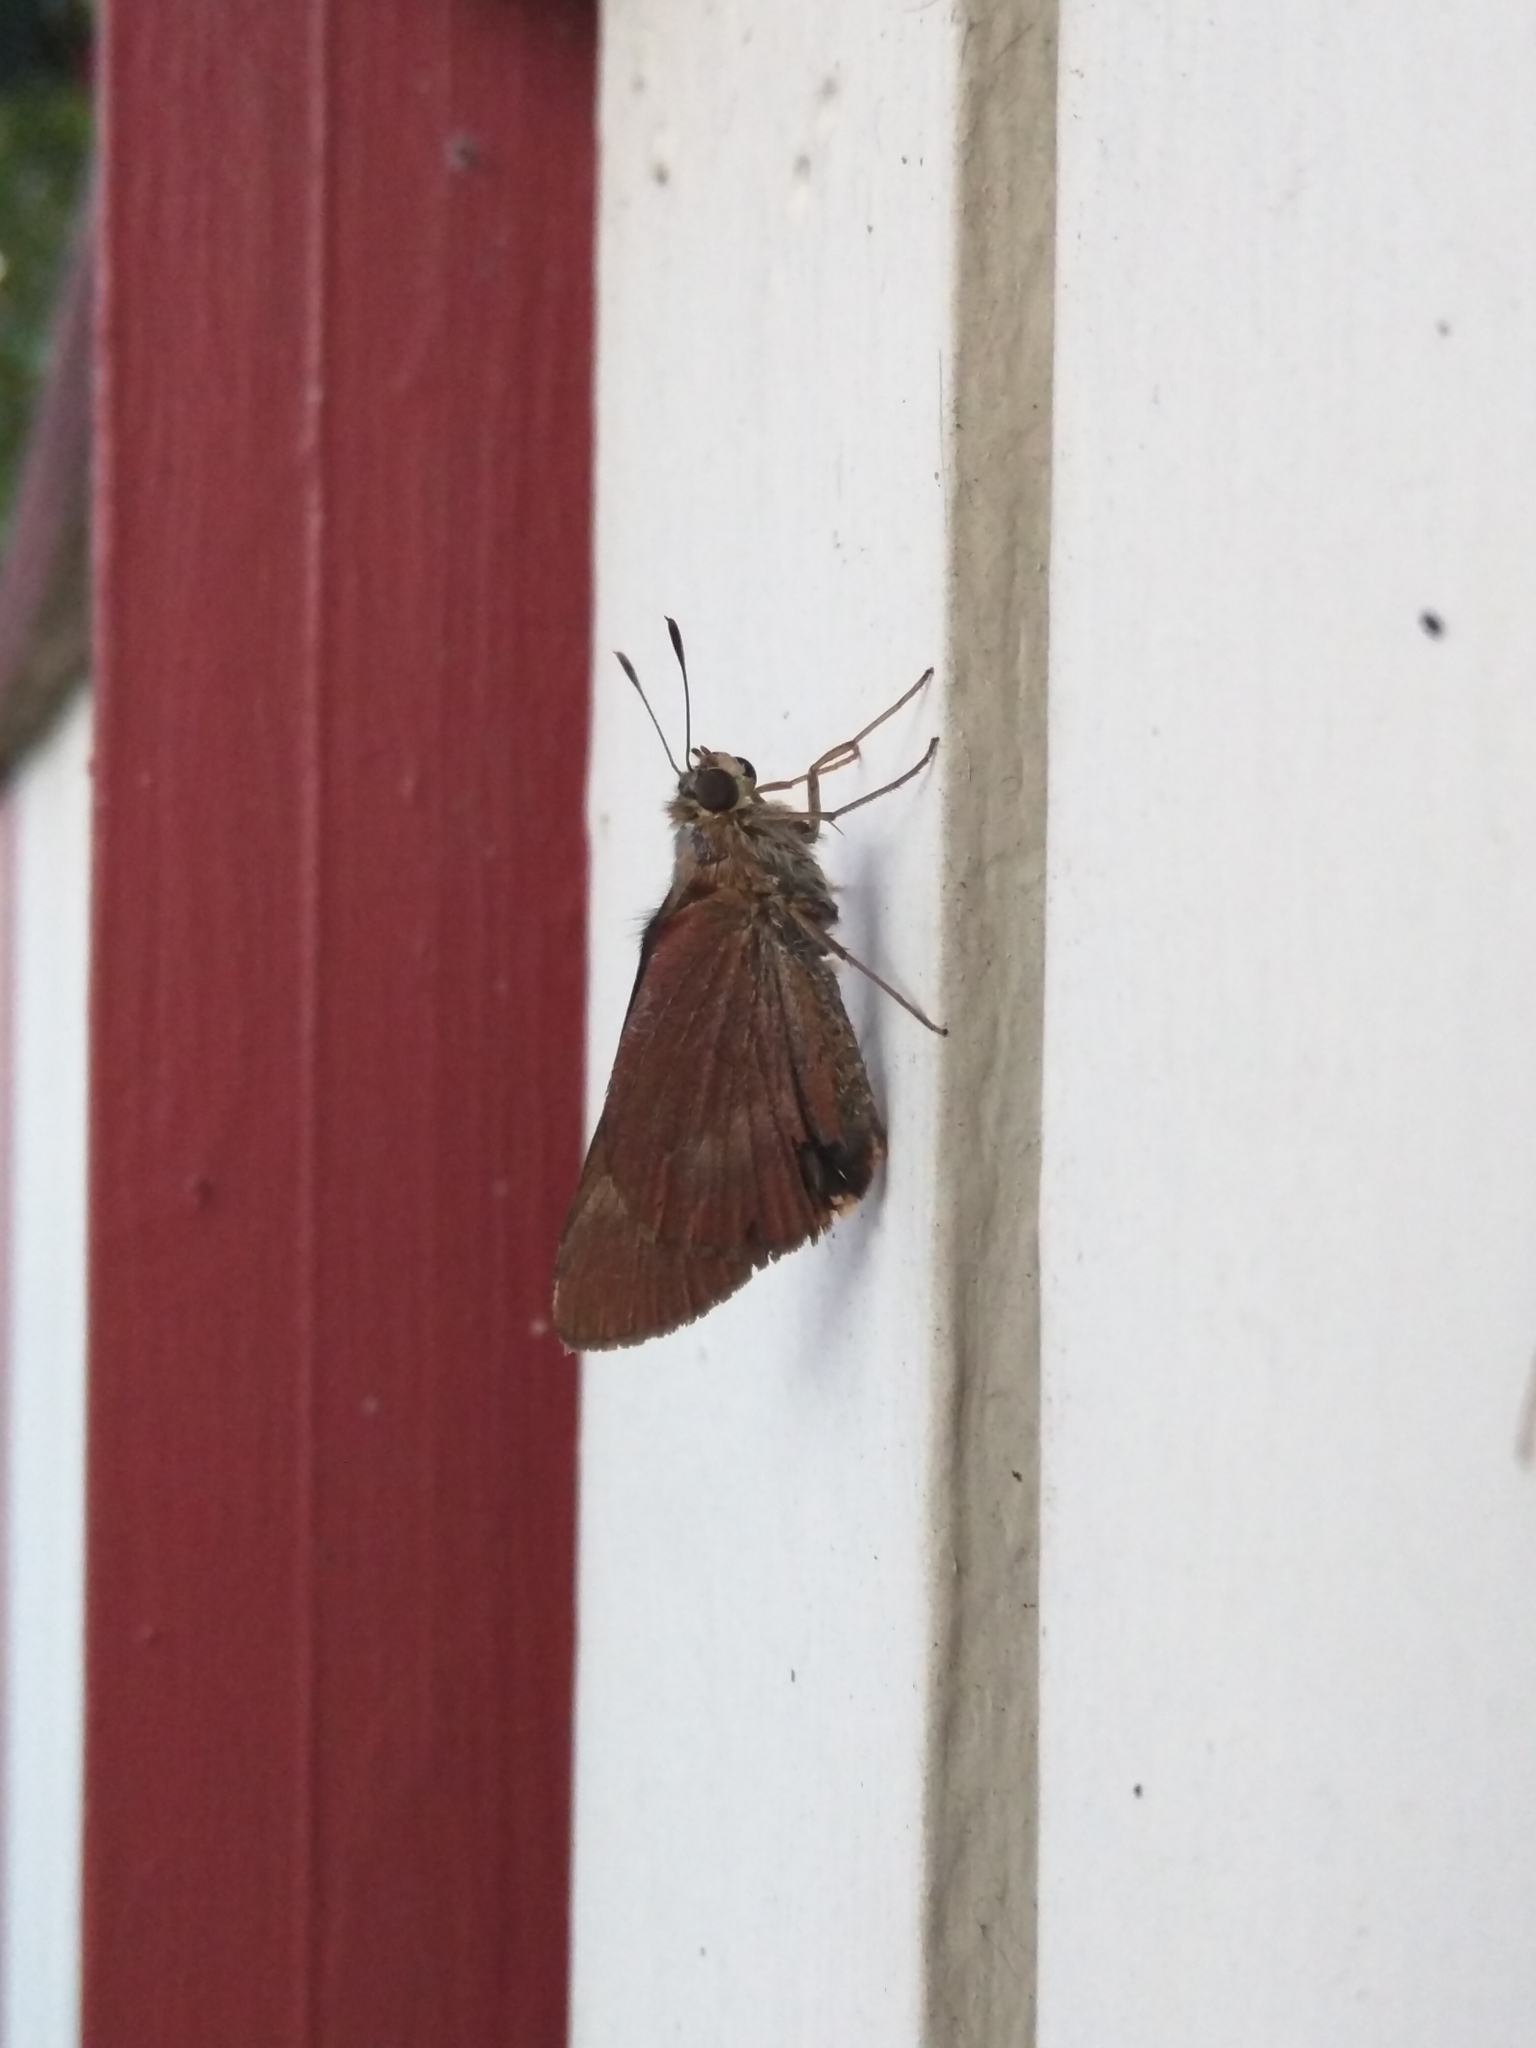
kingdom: Animalia
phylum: Arthropoda
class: Insecta
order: Lepidoptera
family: Hesperiidae
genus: Cephrenes
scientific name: Cephrenes augiades
